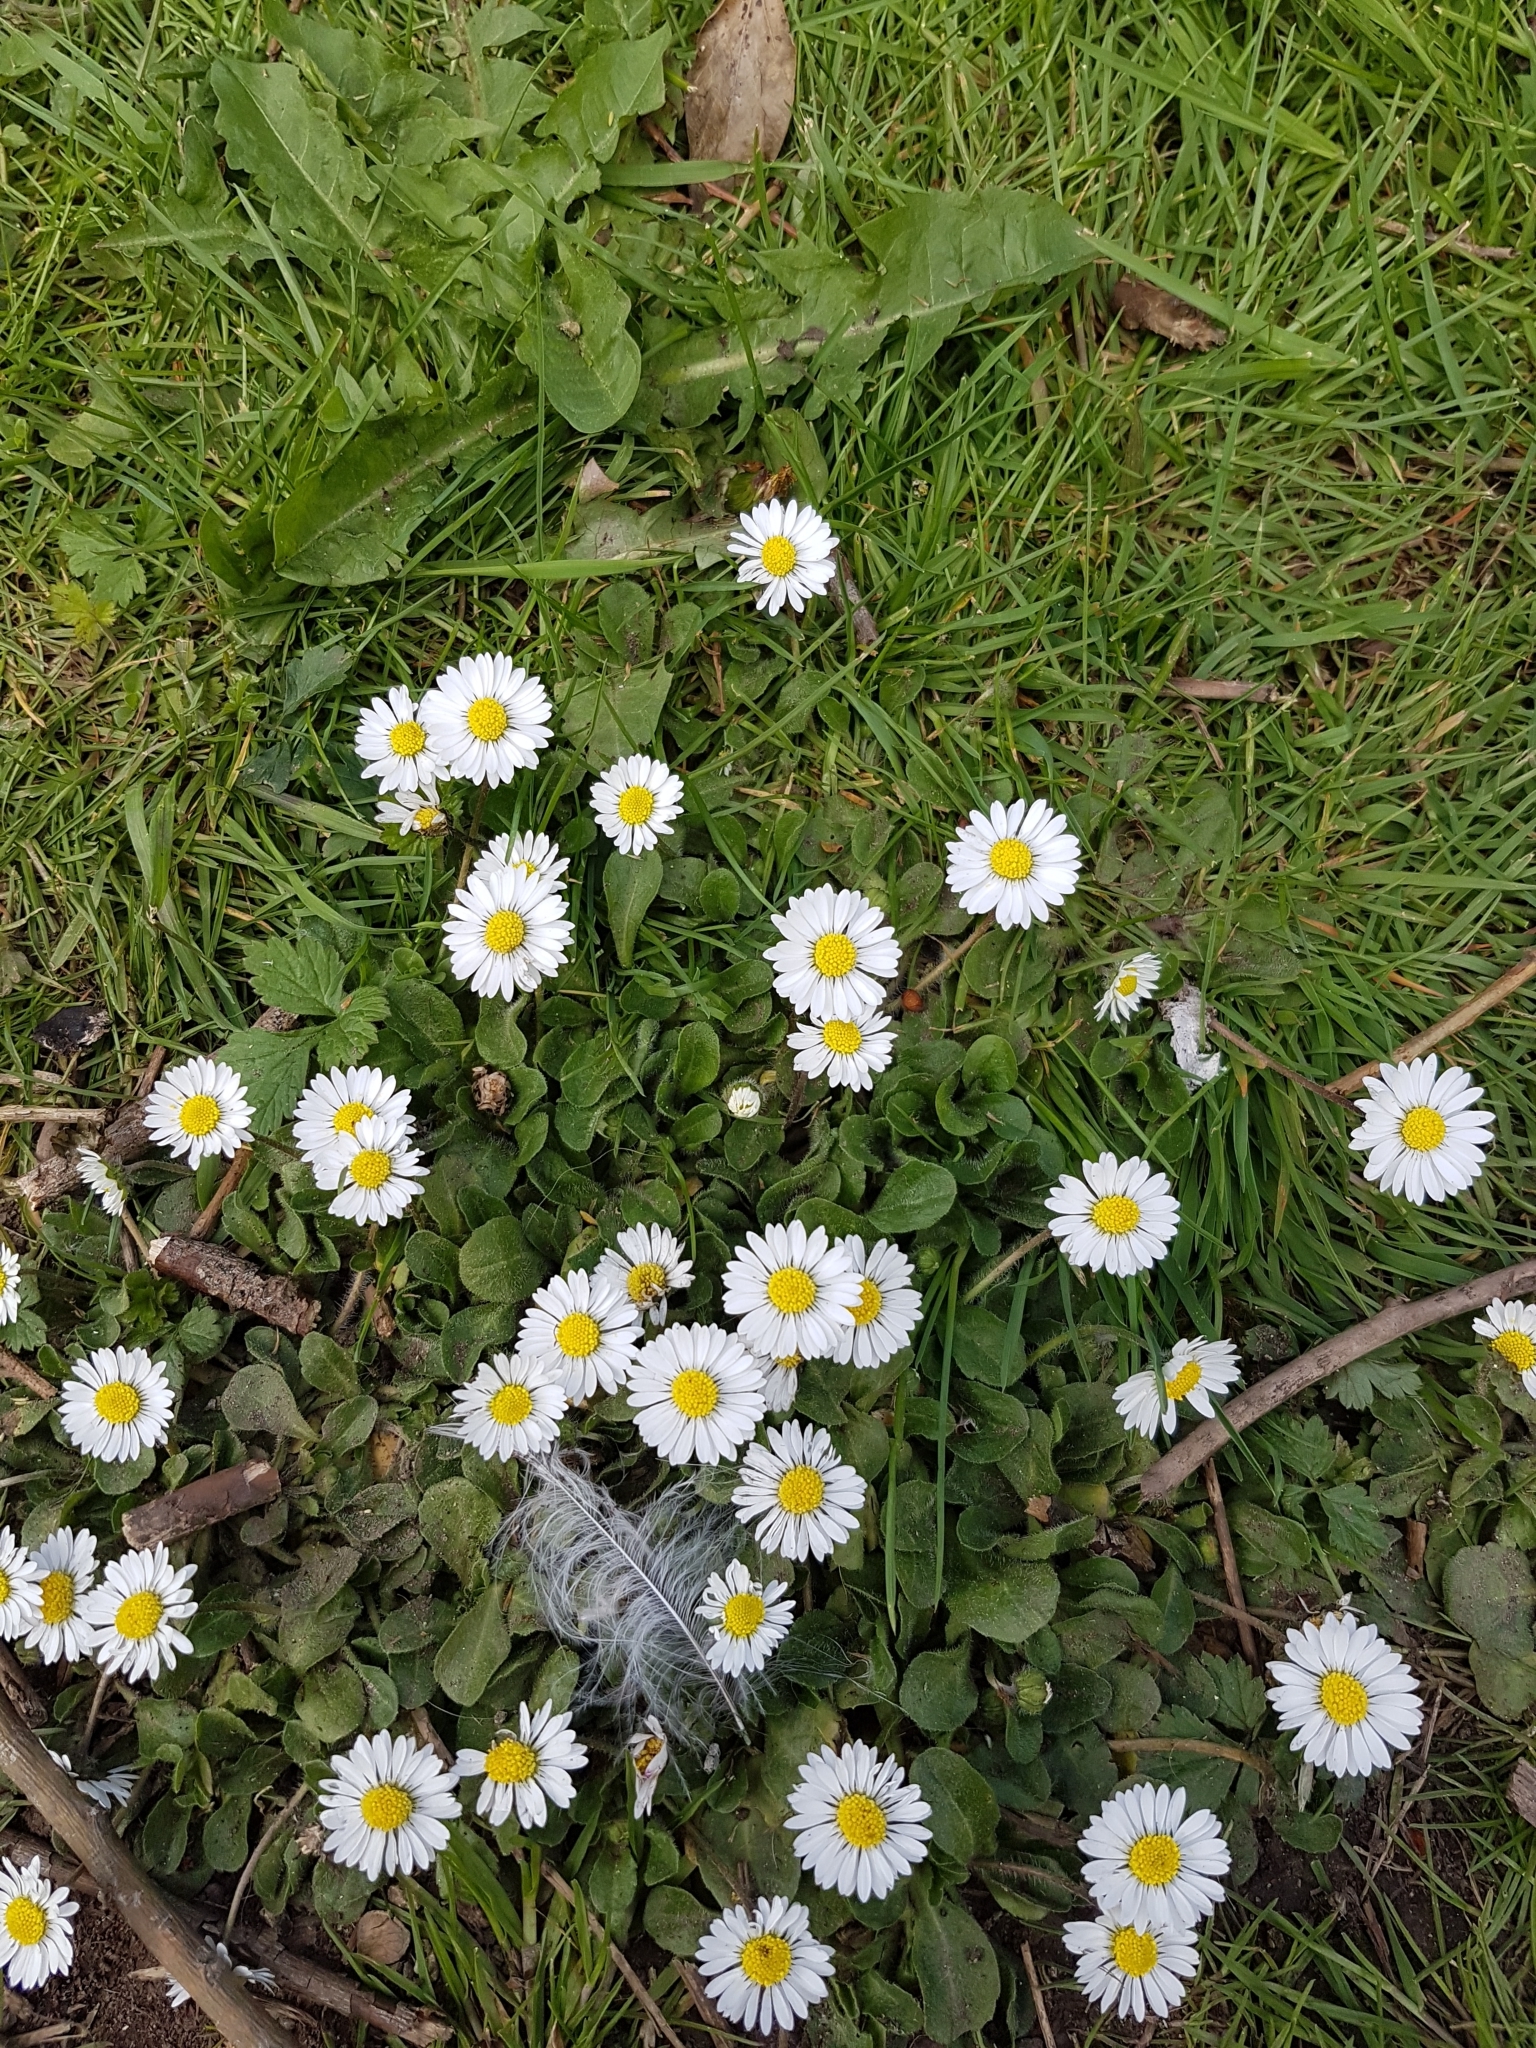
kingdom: Plantae
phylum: Tracheophyta
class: Magnoliopsida
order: Asterales
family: Asteraceae
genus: Bellis
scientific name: Bellis perennis
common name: Lawndaisy
